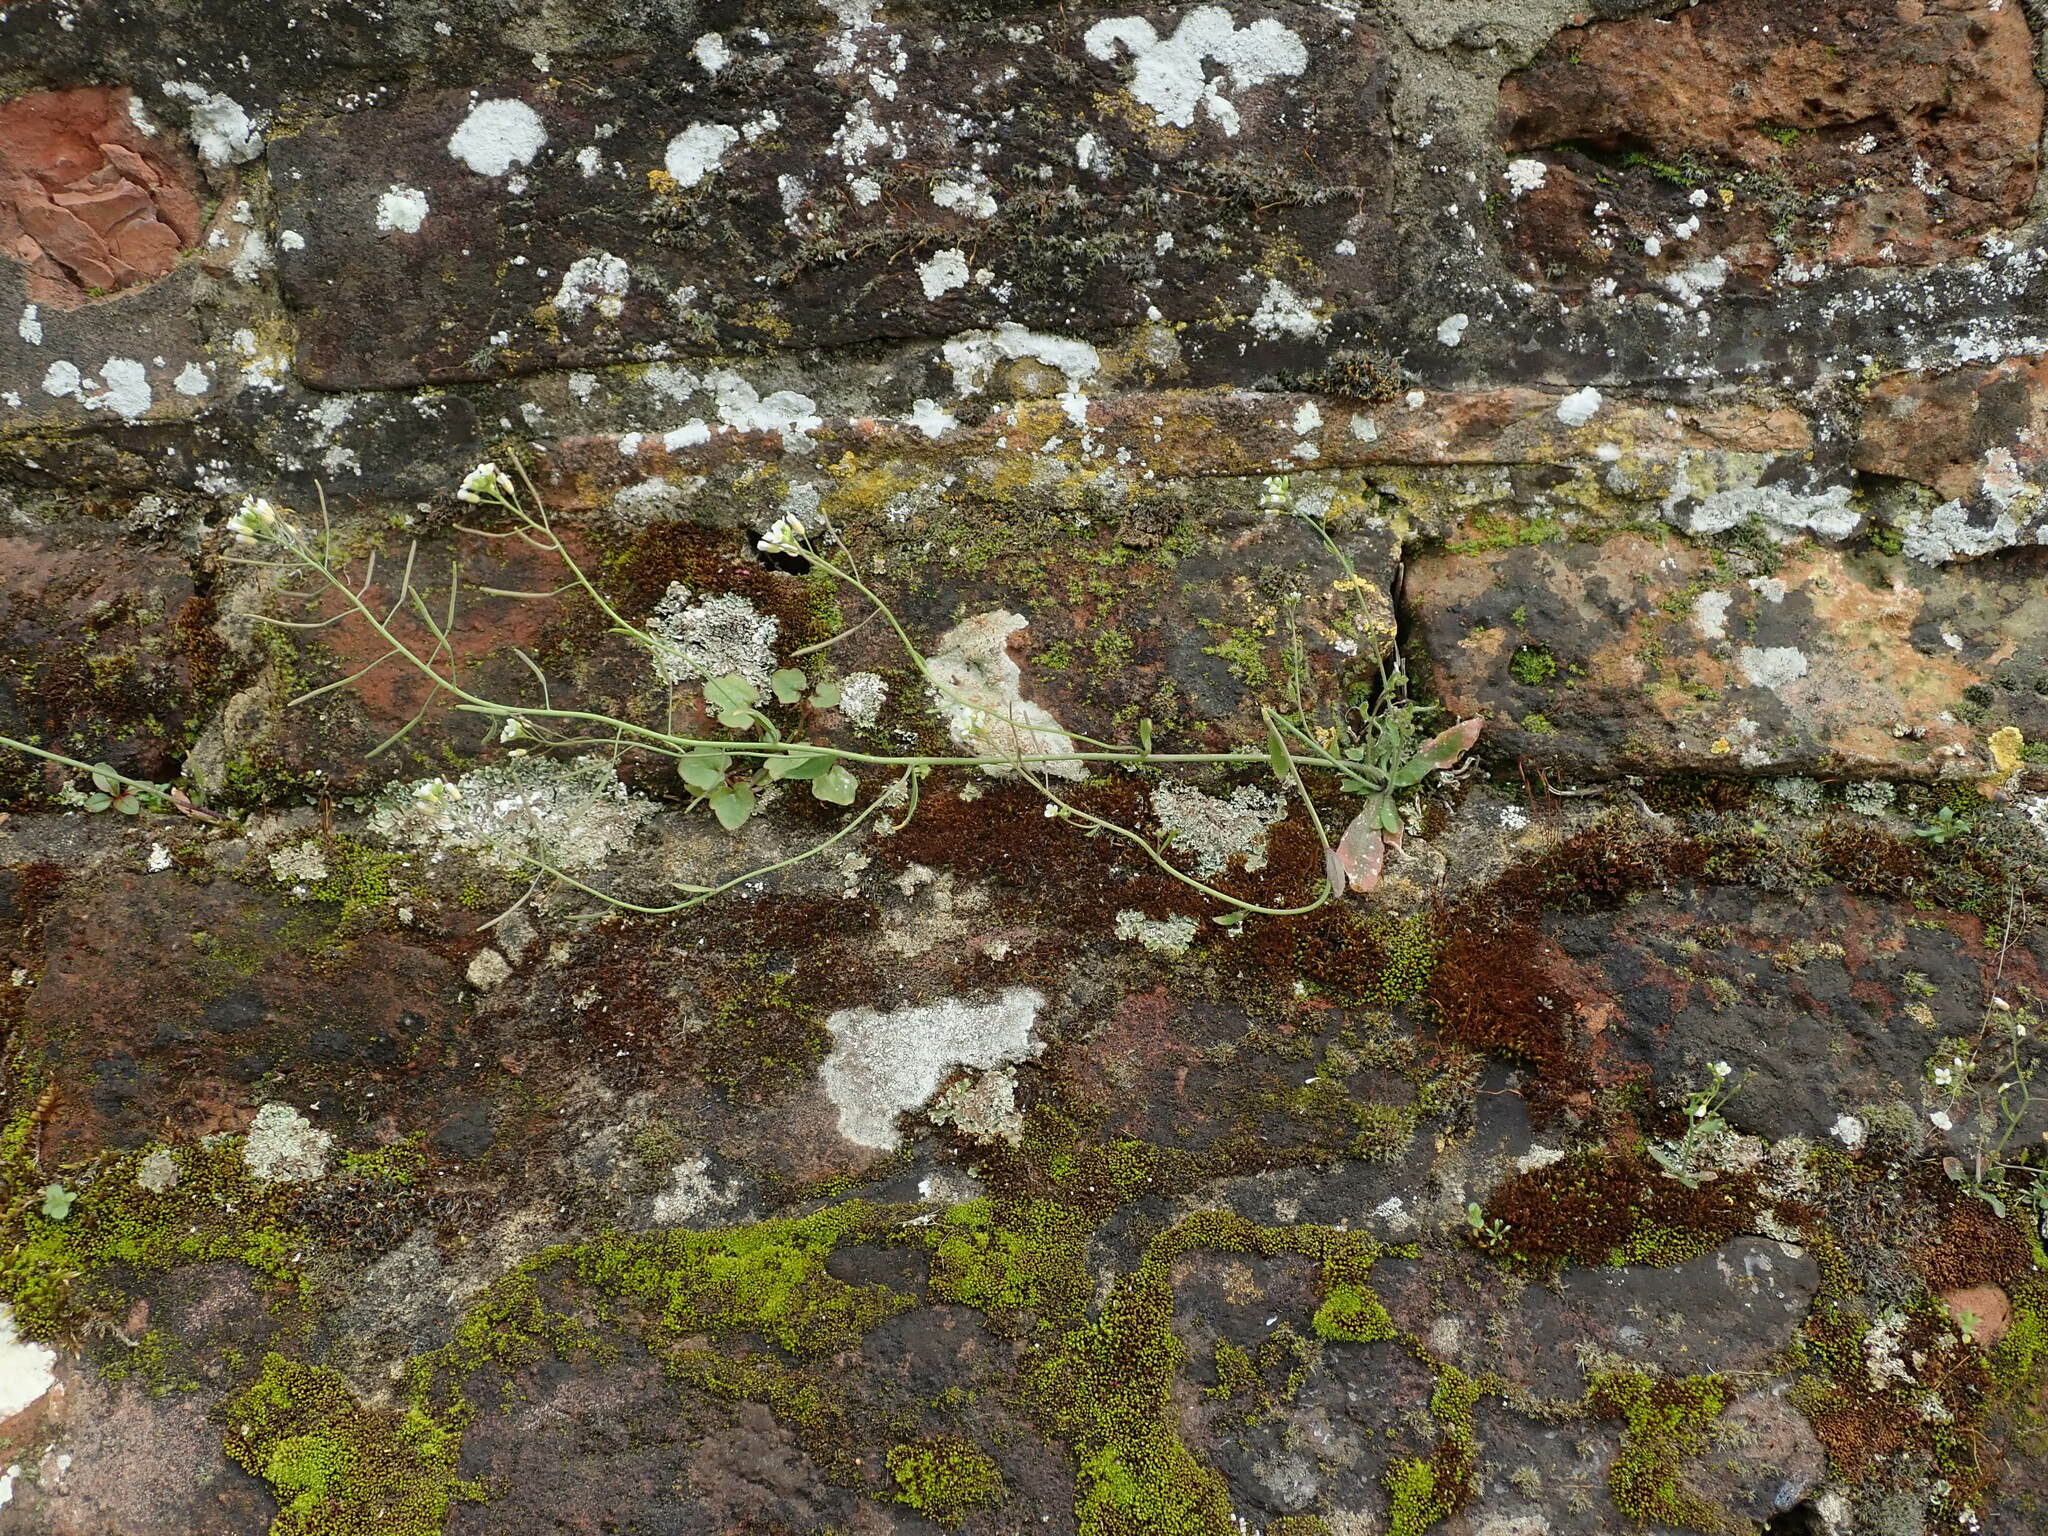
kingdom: Plantae
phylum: Tracheophyta
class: Magnoliopsida
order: Brassicales
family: Brassicaceae
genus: Arabidopsis
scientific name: Arabidopsis thaliana
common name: Thale cress
